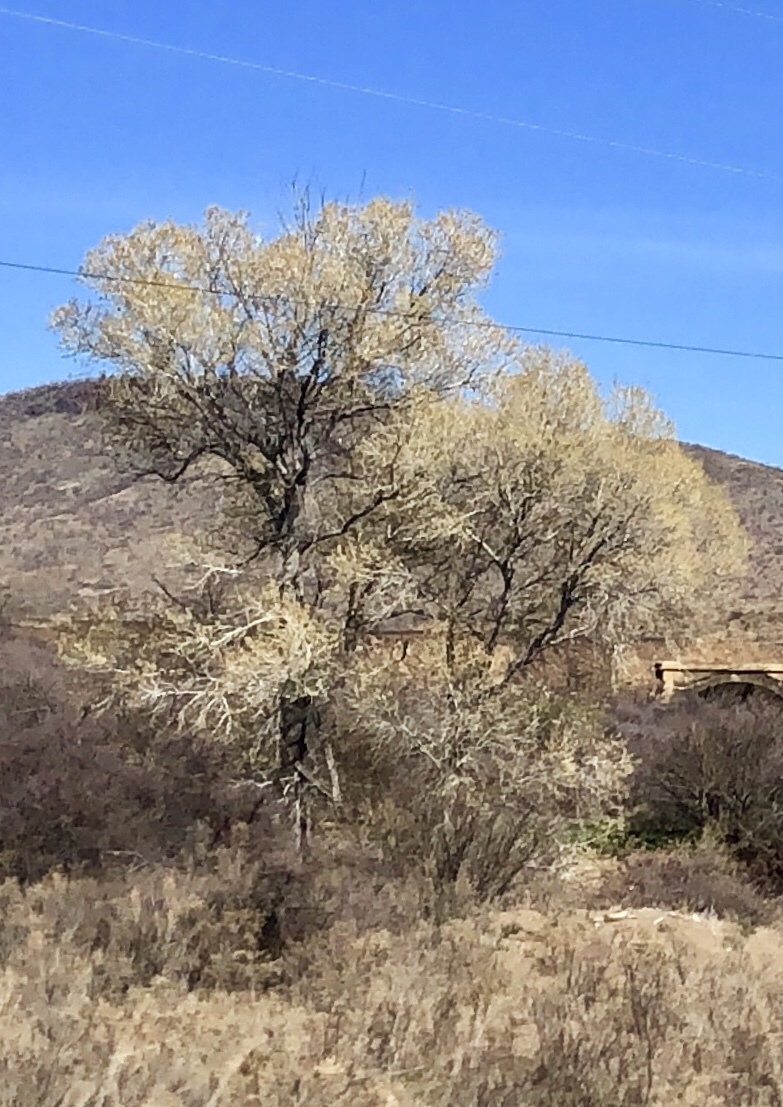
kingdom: Plantae
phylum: Tracheophyta
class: Magnoliopsida
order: Malpighiales
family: Salicaceae
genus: Populus
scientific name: Populus fremontii
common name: Fremont's cottonwood
